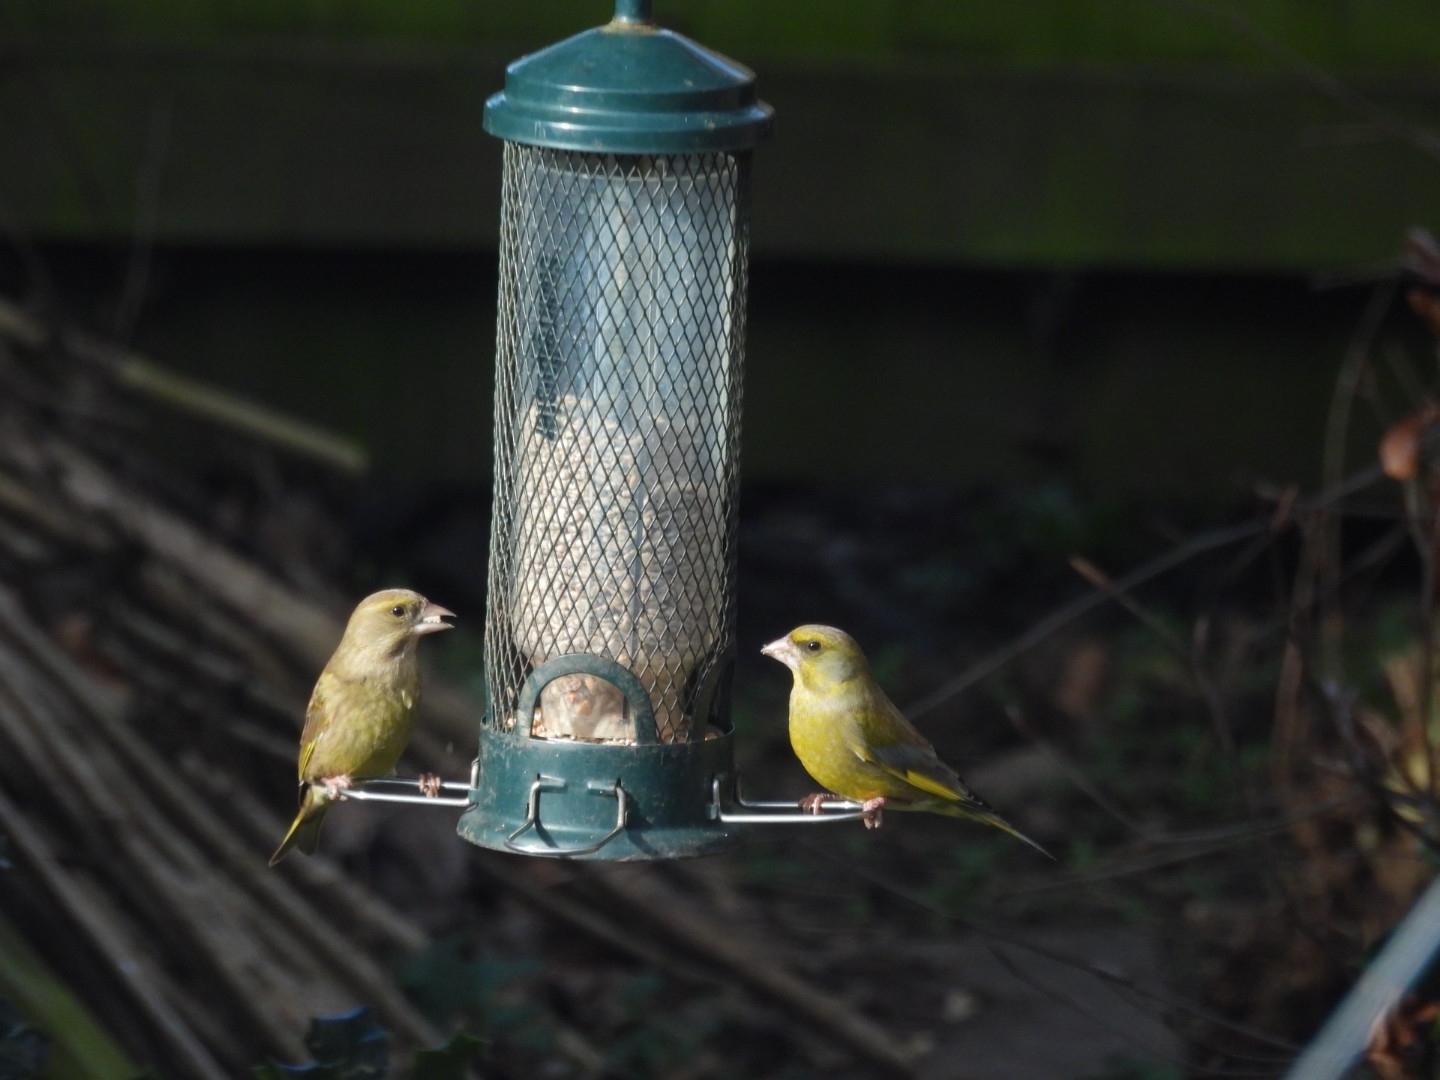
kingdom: Plantae
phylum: Tracheophyta
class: Liliopsida
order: Poales
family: Poaceae
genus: Chloris
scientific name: Chloris chloris
